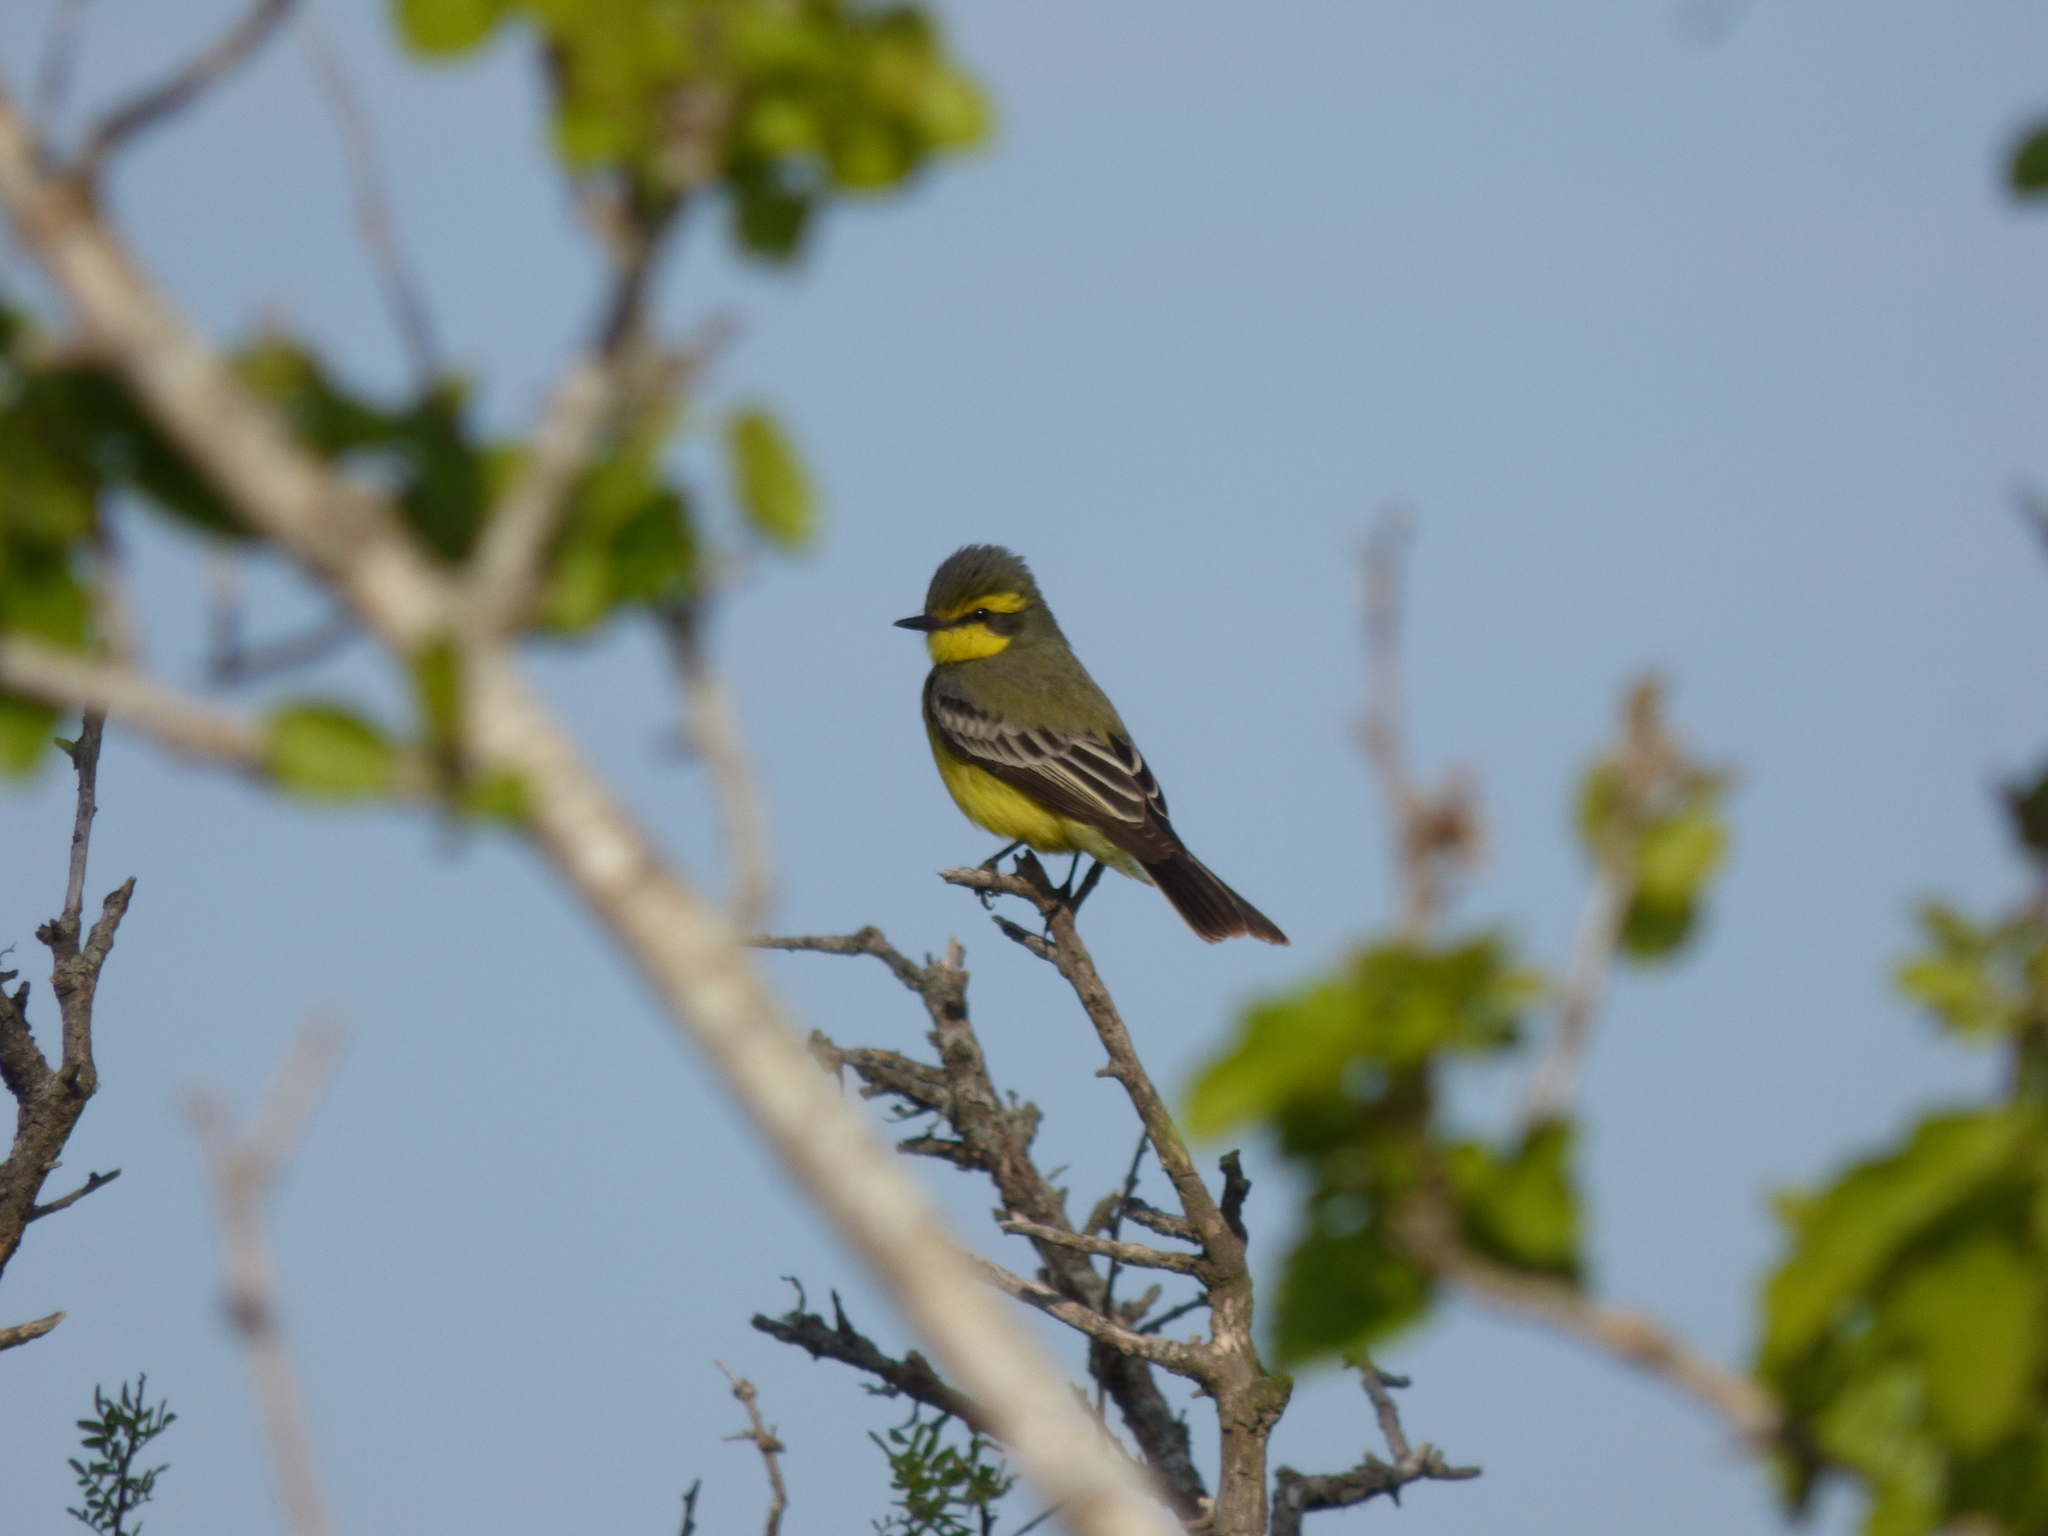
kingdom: Animalia
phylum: Chordata
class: Aves
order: Passeriformes
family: Tyrannidae
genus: Satrapa
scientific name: Satrapa icterophrys
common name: Yellow-browed tyrant
